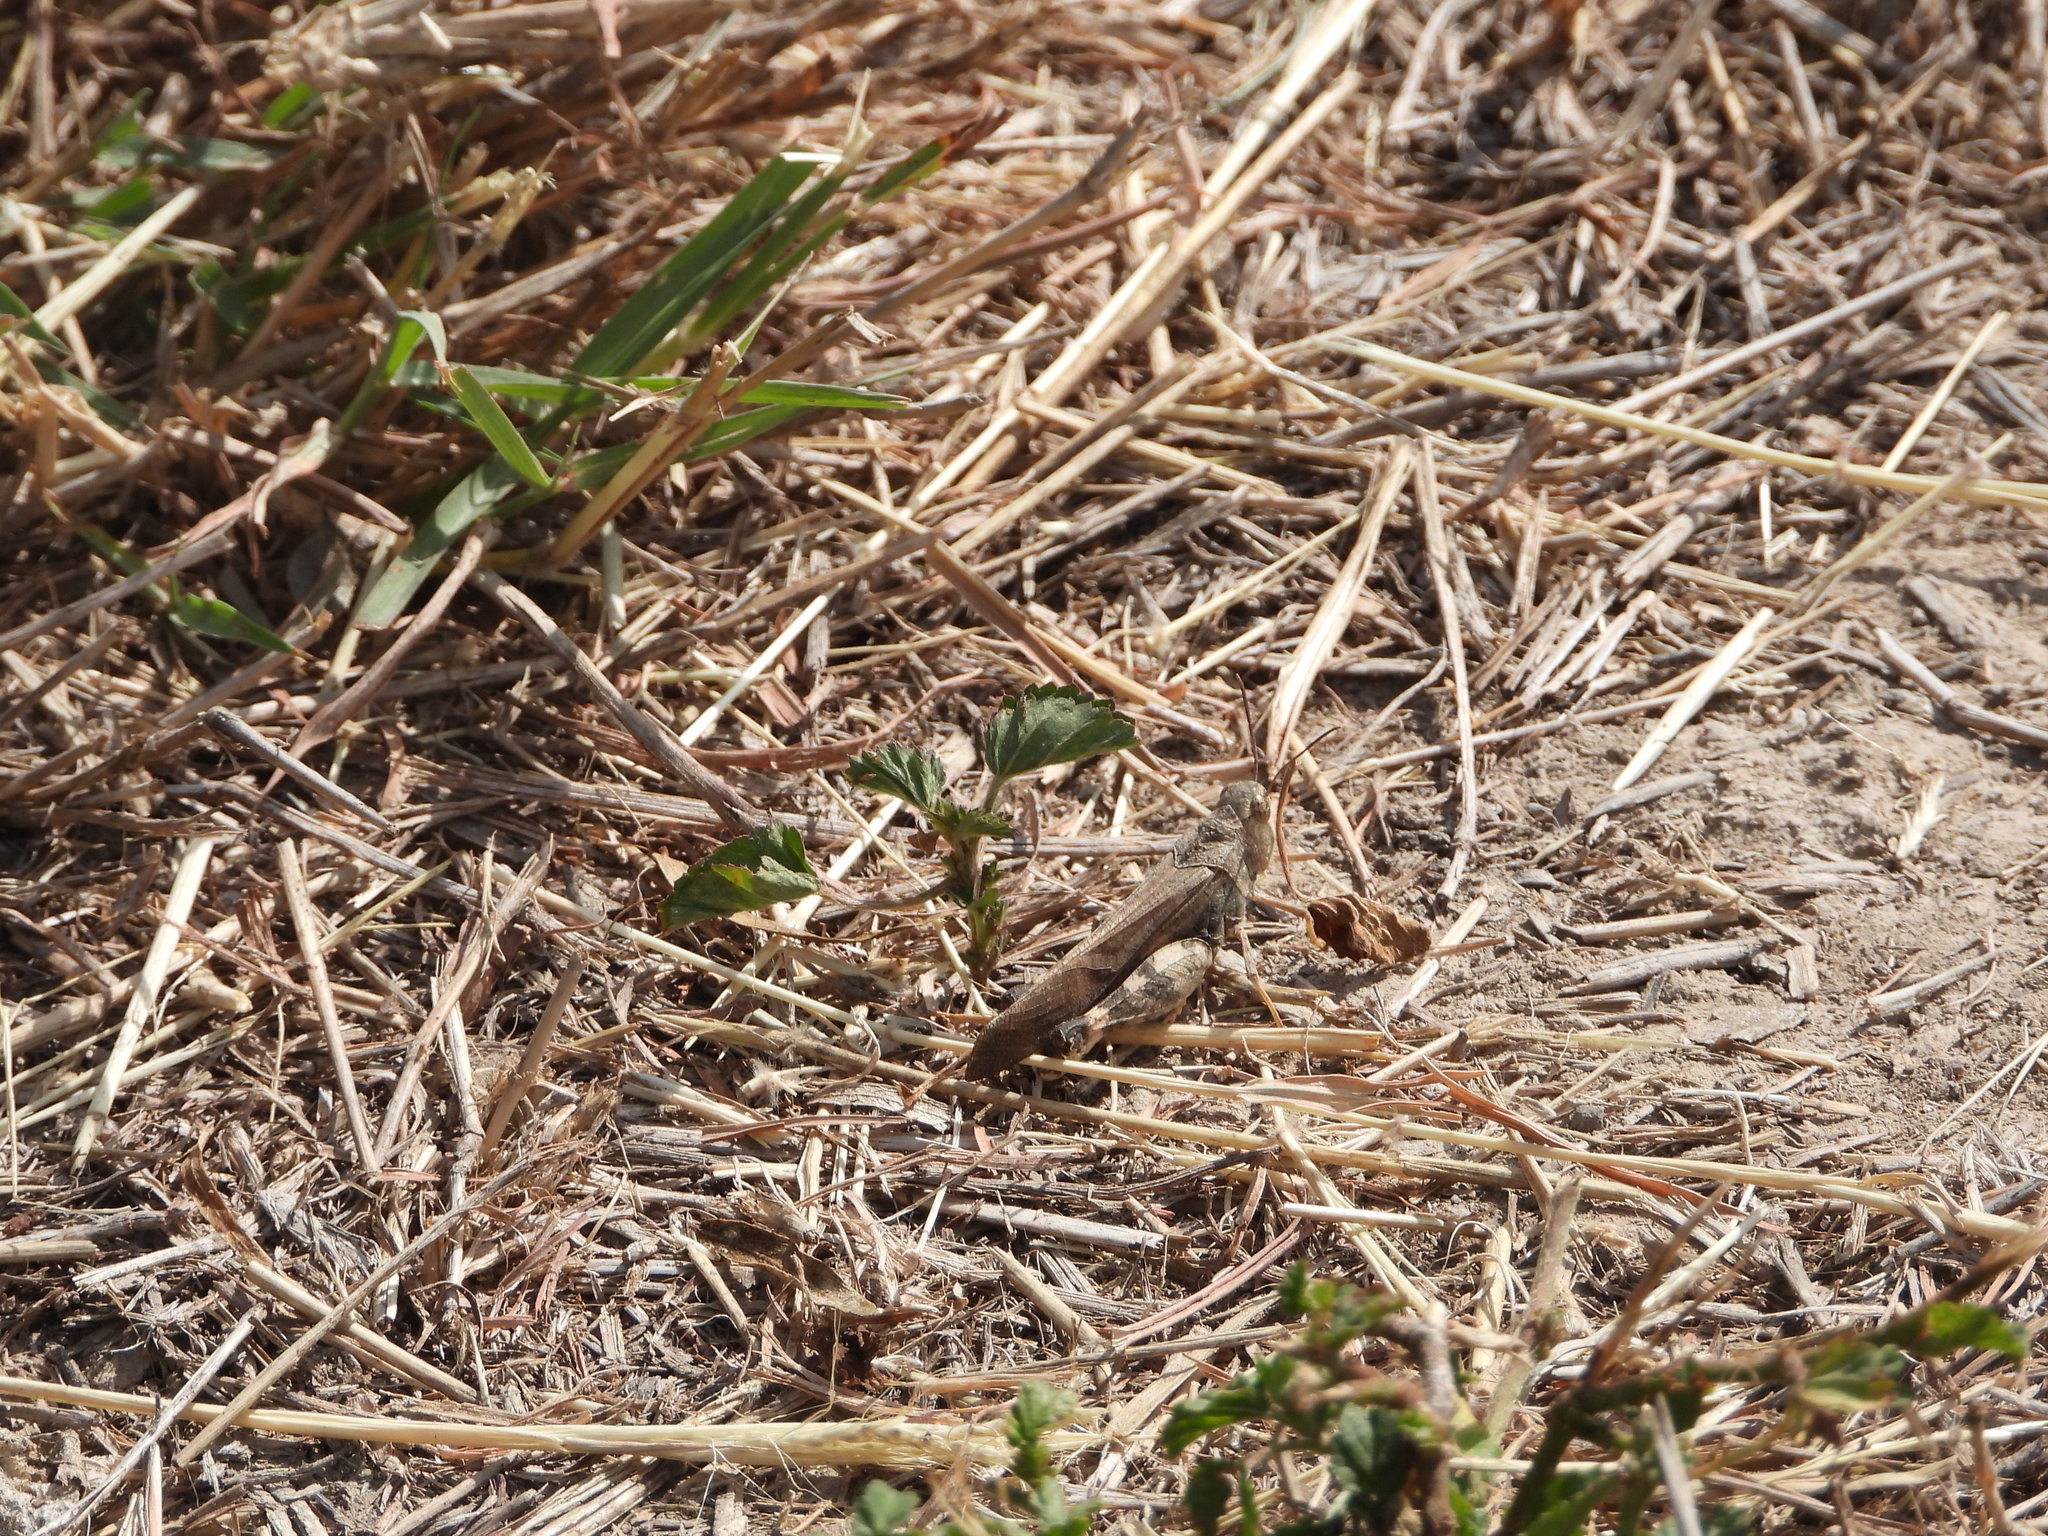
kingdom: Animalia
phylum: Arthropoda
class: Insecta
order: Orthoptera
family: Acrididae
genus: Arphia
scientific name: Arphia simplex
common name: Plains yellow-winged grasshopper
